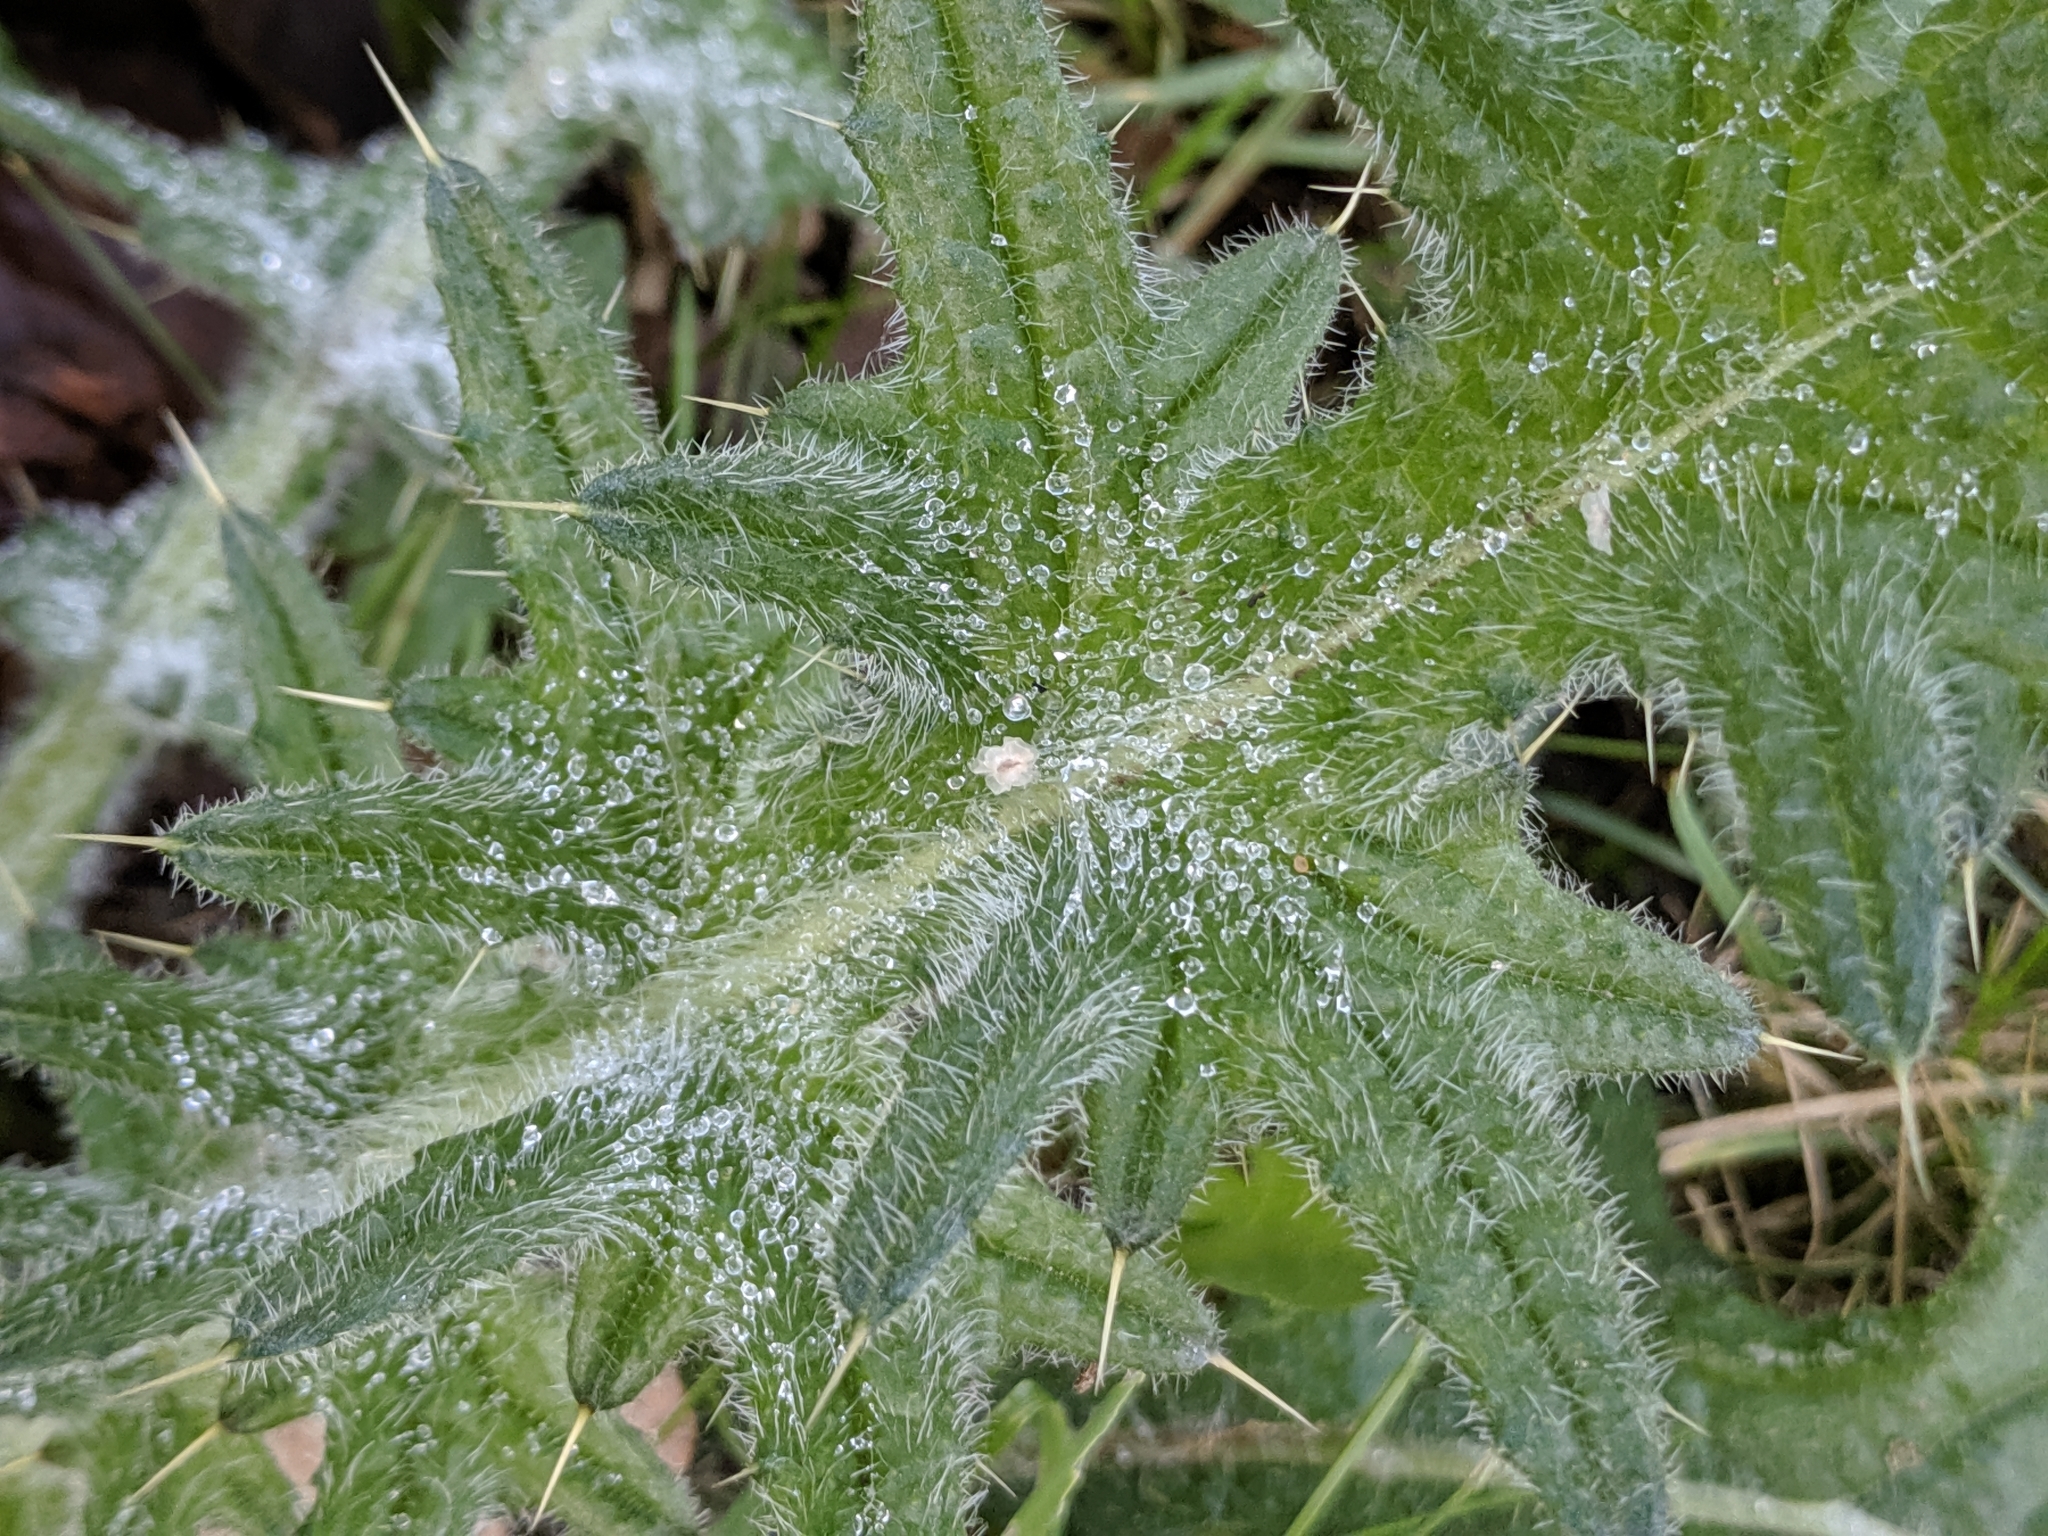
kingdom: Plantae
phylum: Tracheophyta
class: Magnoliopsida
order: Asterales
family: Asteraceae
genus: Cirsium
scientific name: Cirsium vulgare
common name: Bull thistle
